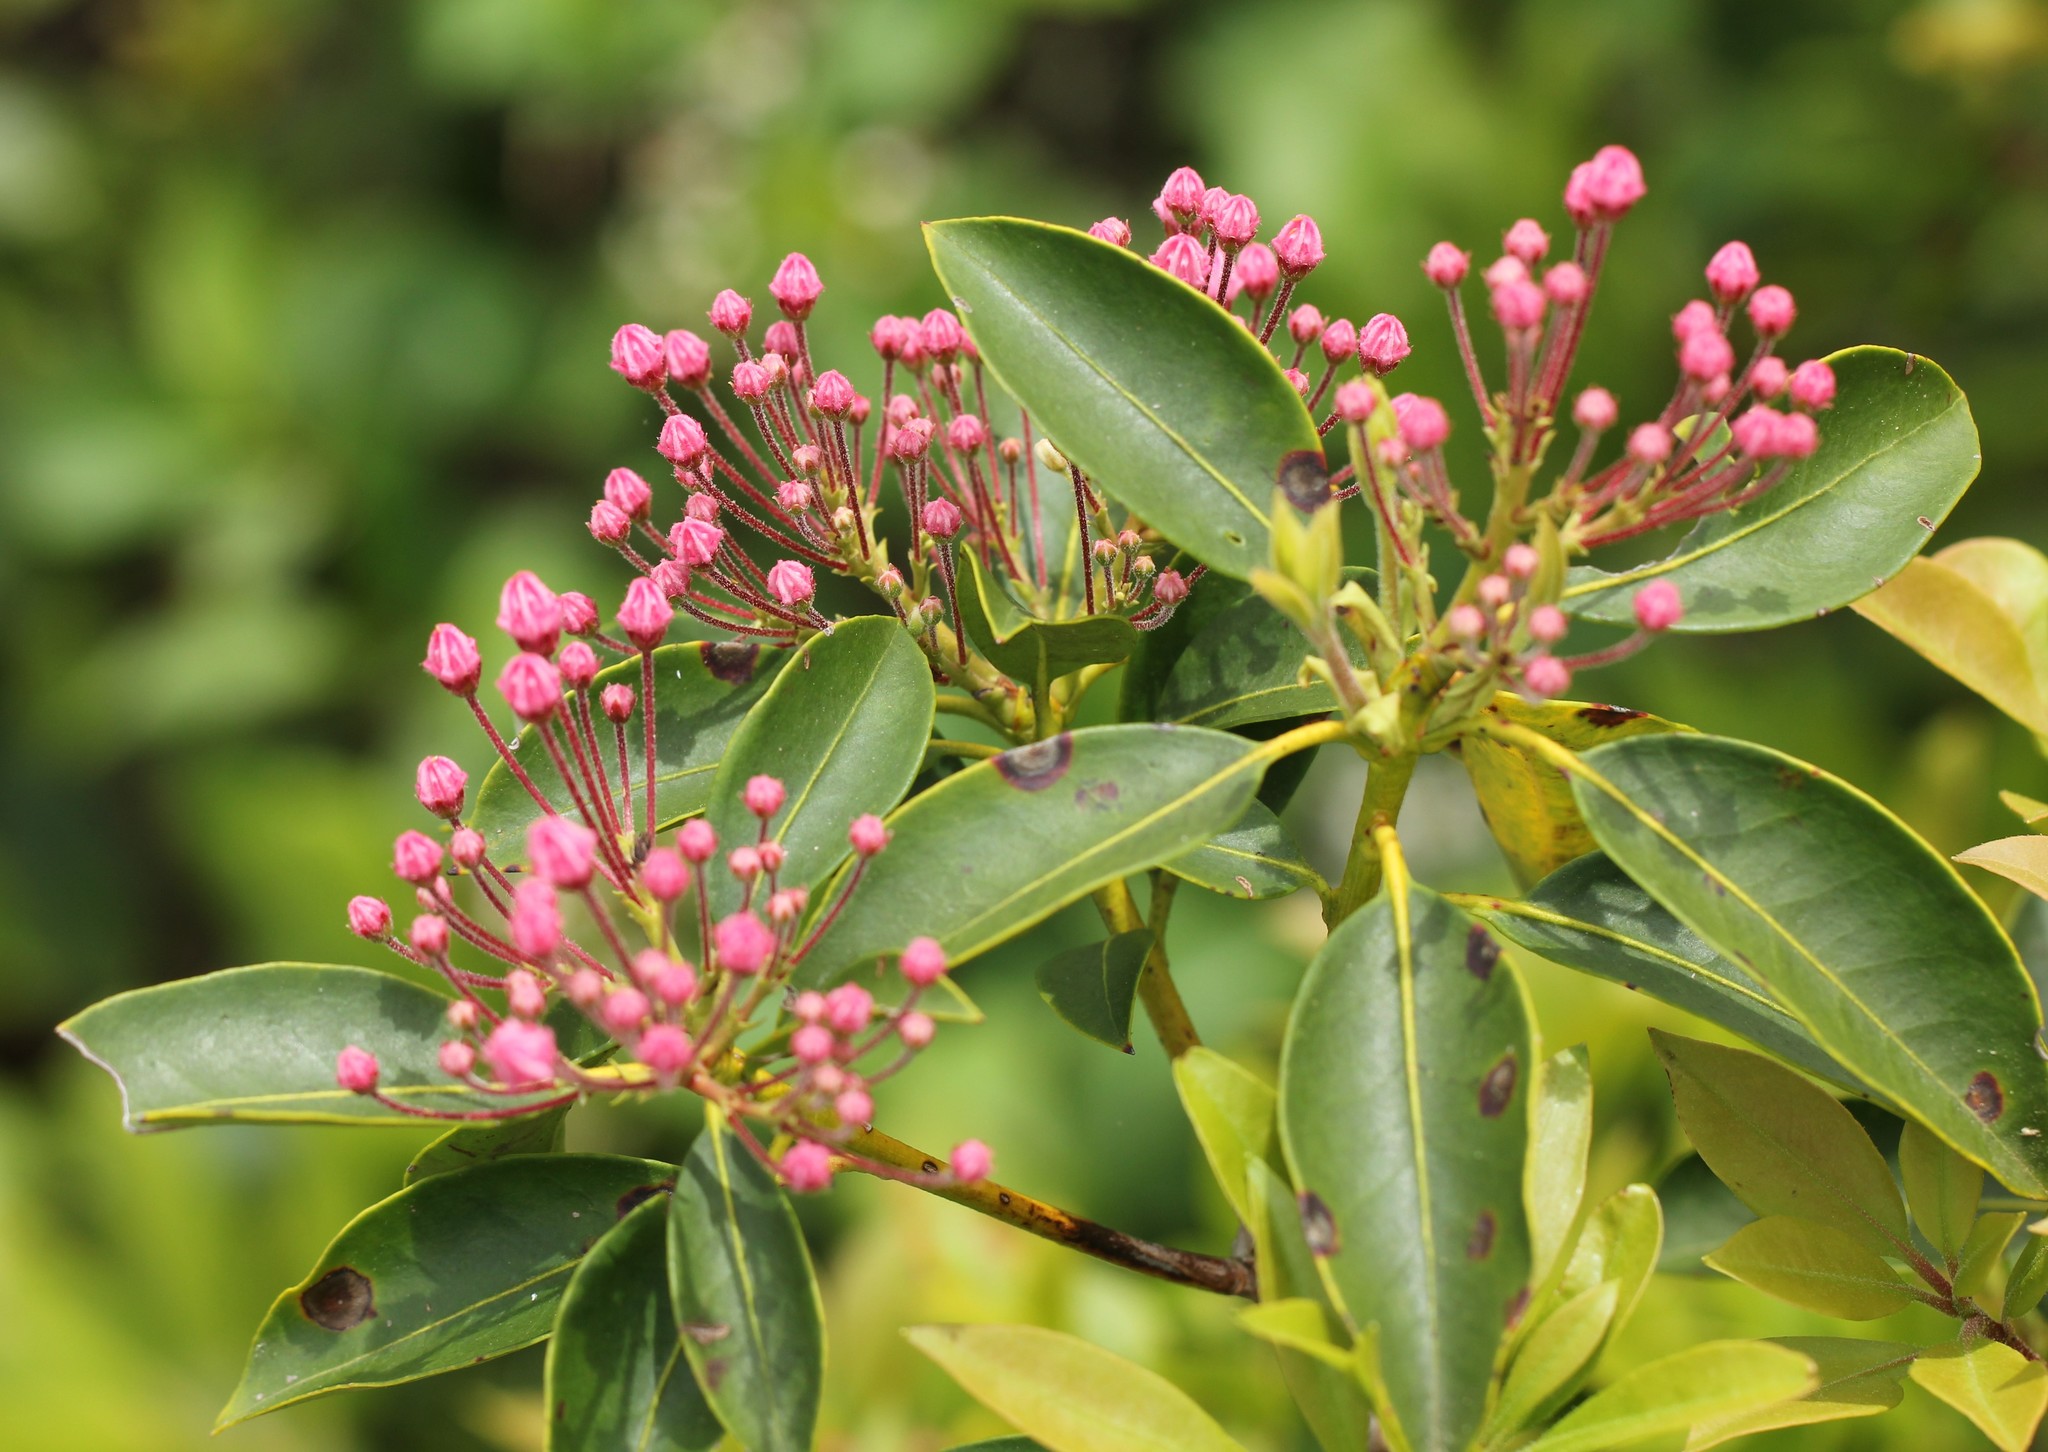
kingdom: Plantae
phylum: Tracheophyta
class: Magnoliopsida
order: Ericales
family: Ericaceae
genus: Kalmia
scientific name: Kalmia latifolia
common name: Mountain-laurel
